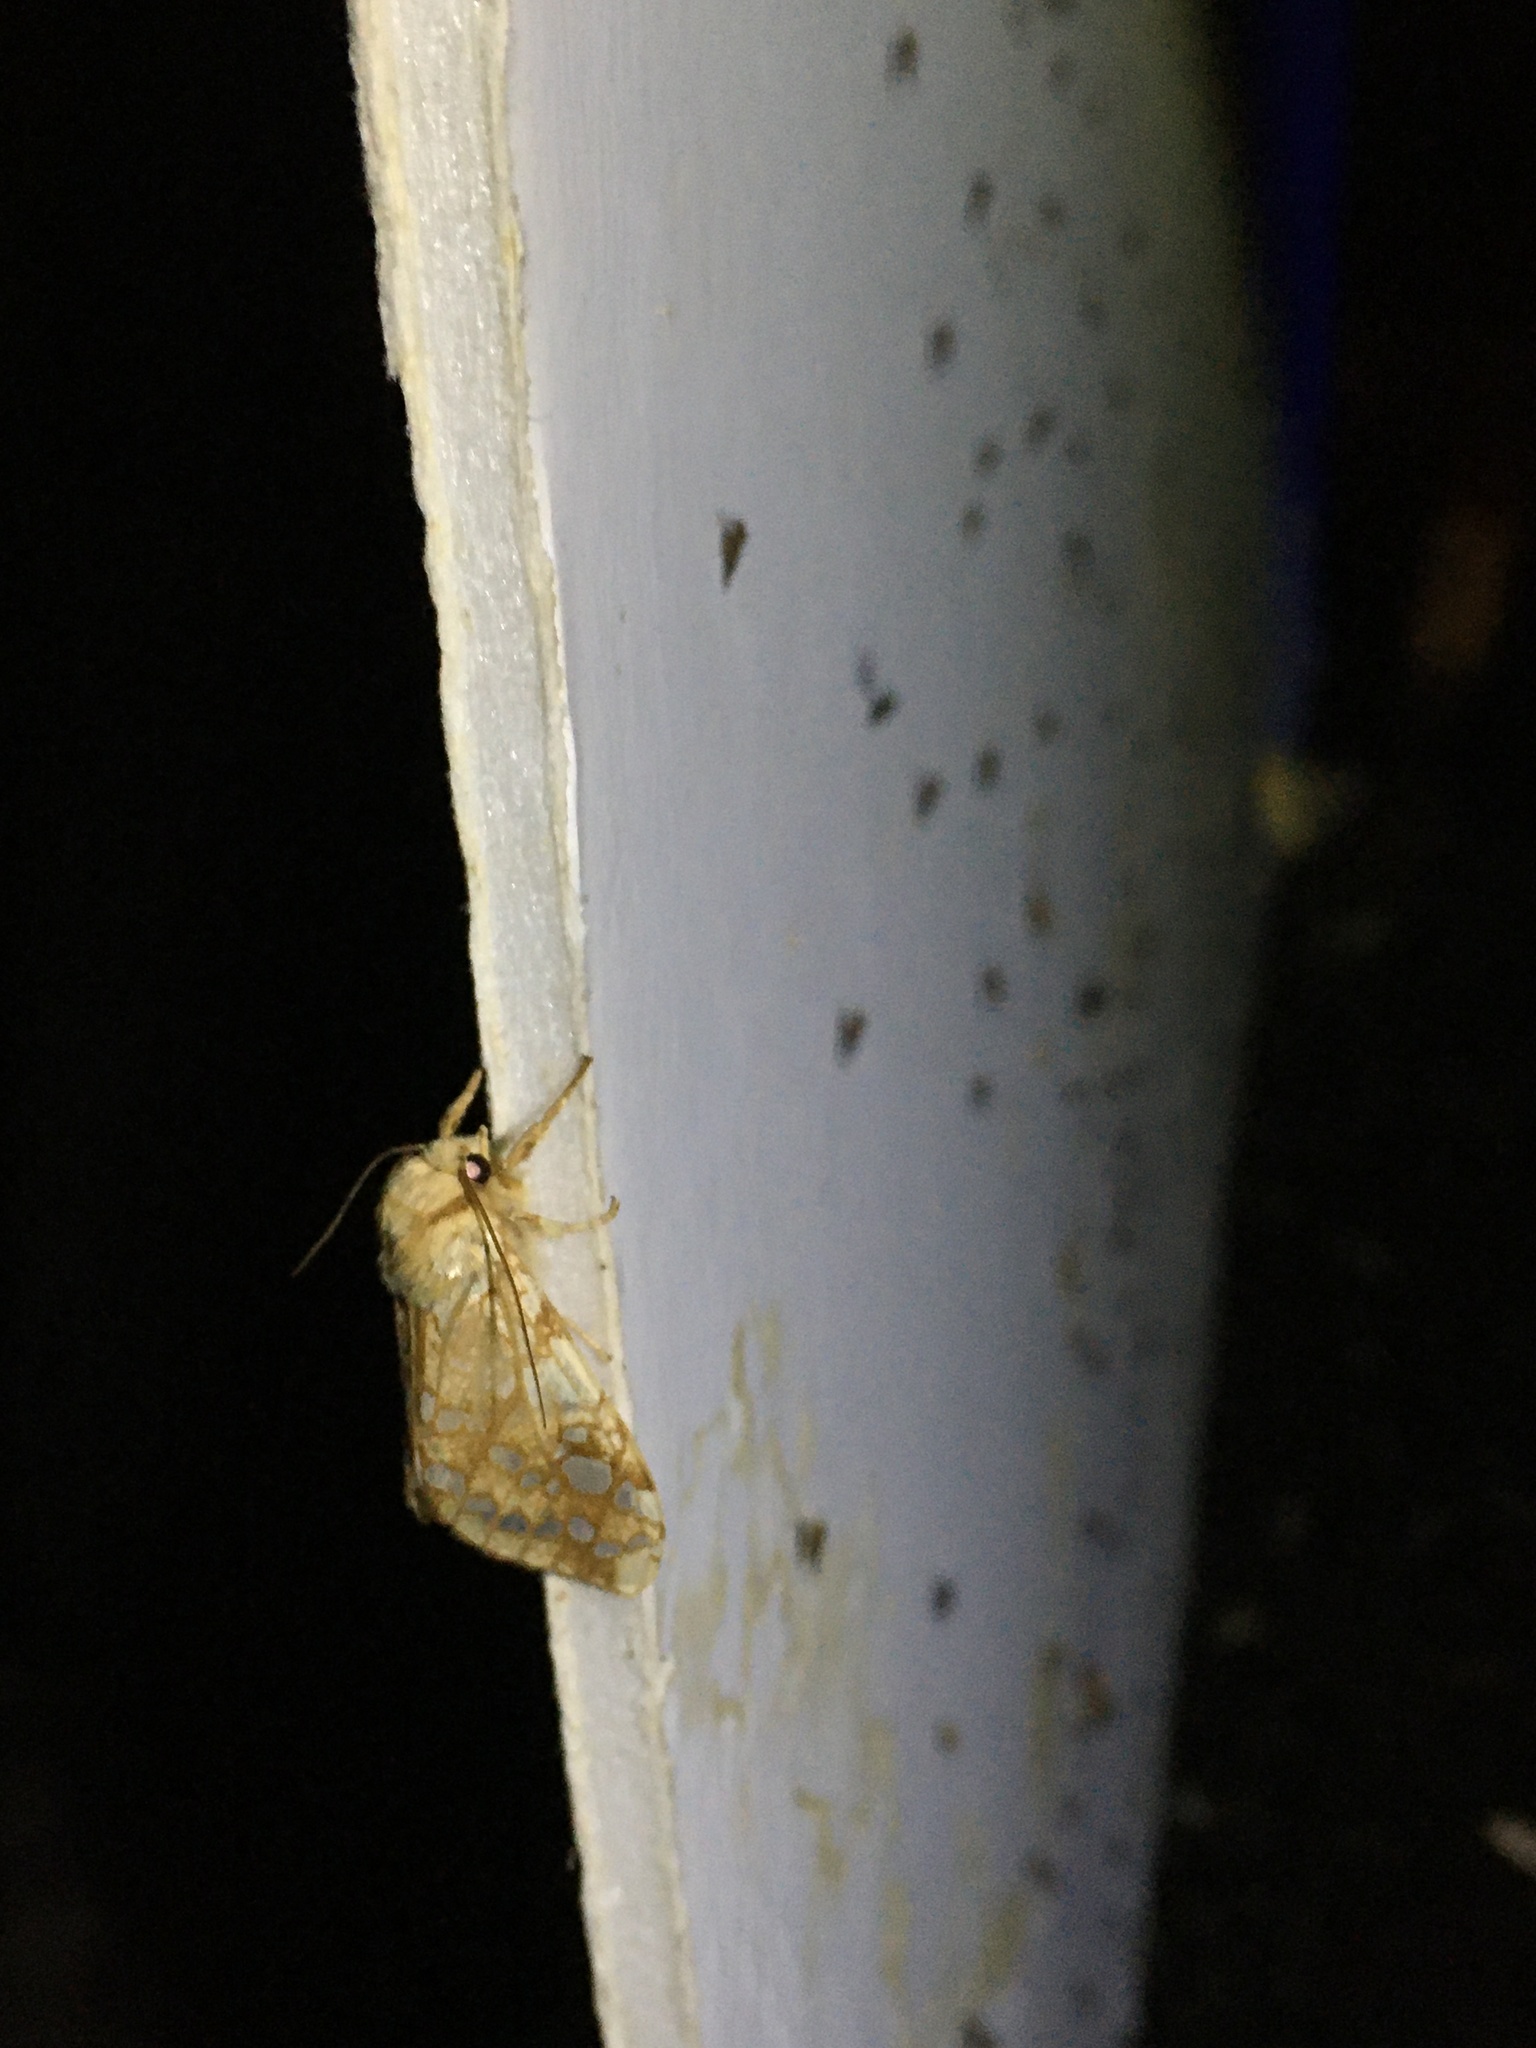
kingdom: Animalia
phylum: Arthropoda
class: Insecta
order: Lepidoptera
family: Erebidae
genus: Lophocampa
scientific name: Lophocampa caryae
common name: Hickory tussock moth
